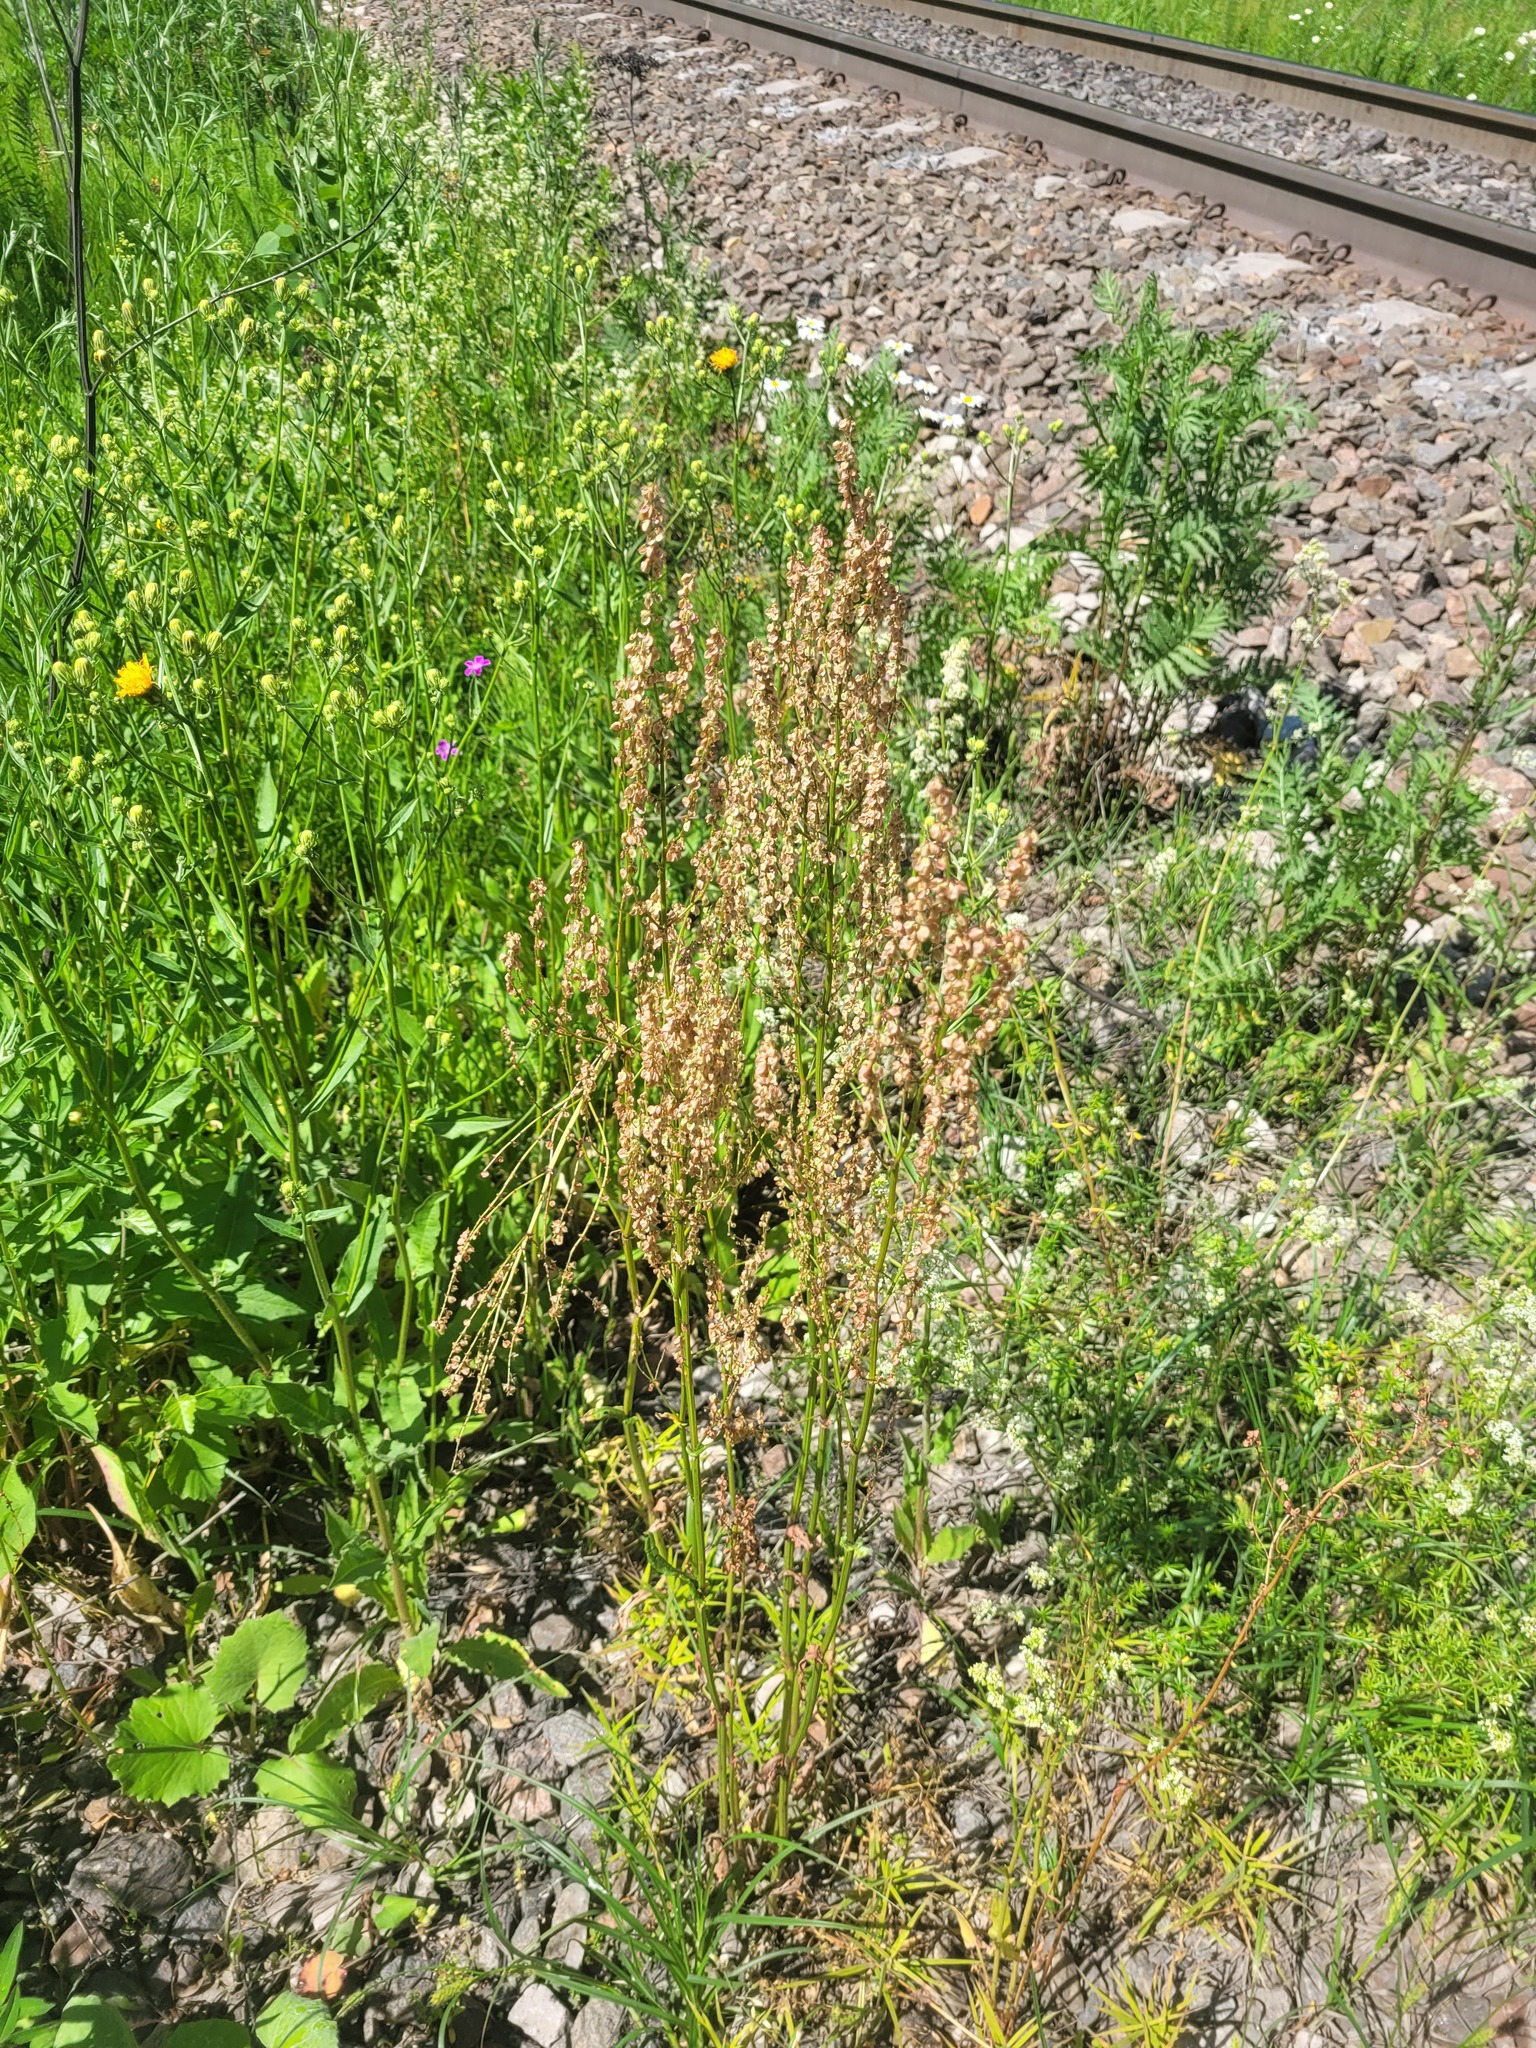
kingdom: Plantae
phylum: Tracheophyta
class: Magnoliopsida
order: Caryophyllales
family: Polygonaceae
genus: Rumex
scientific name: Rumex acetosa
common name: Garden sorrel
